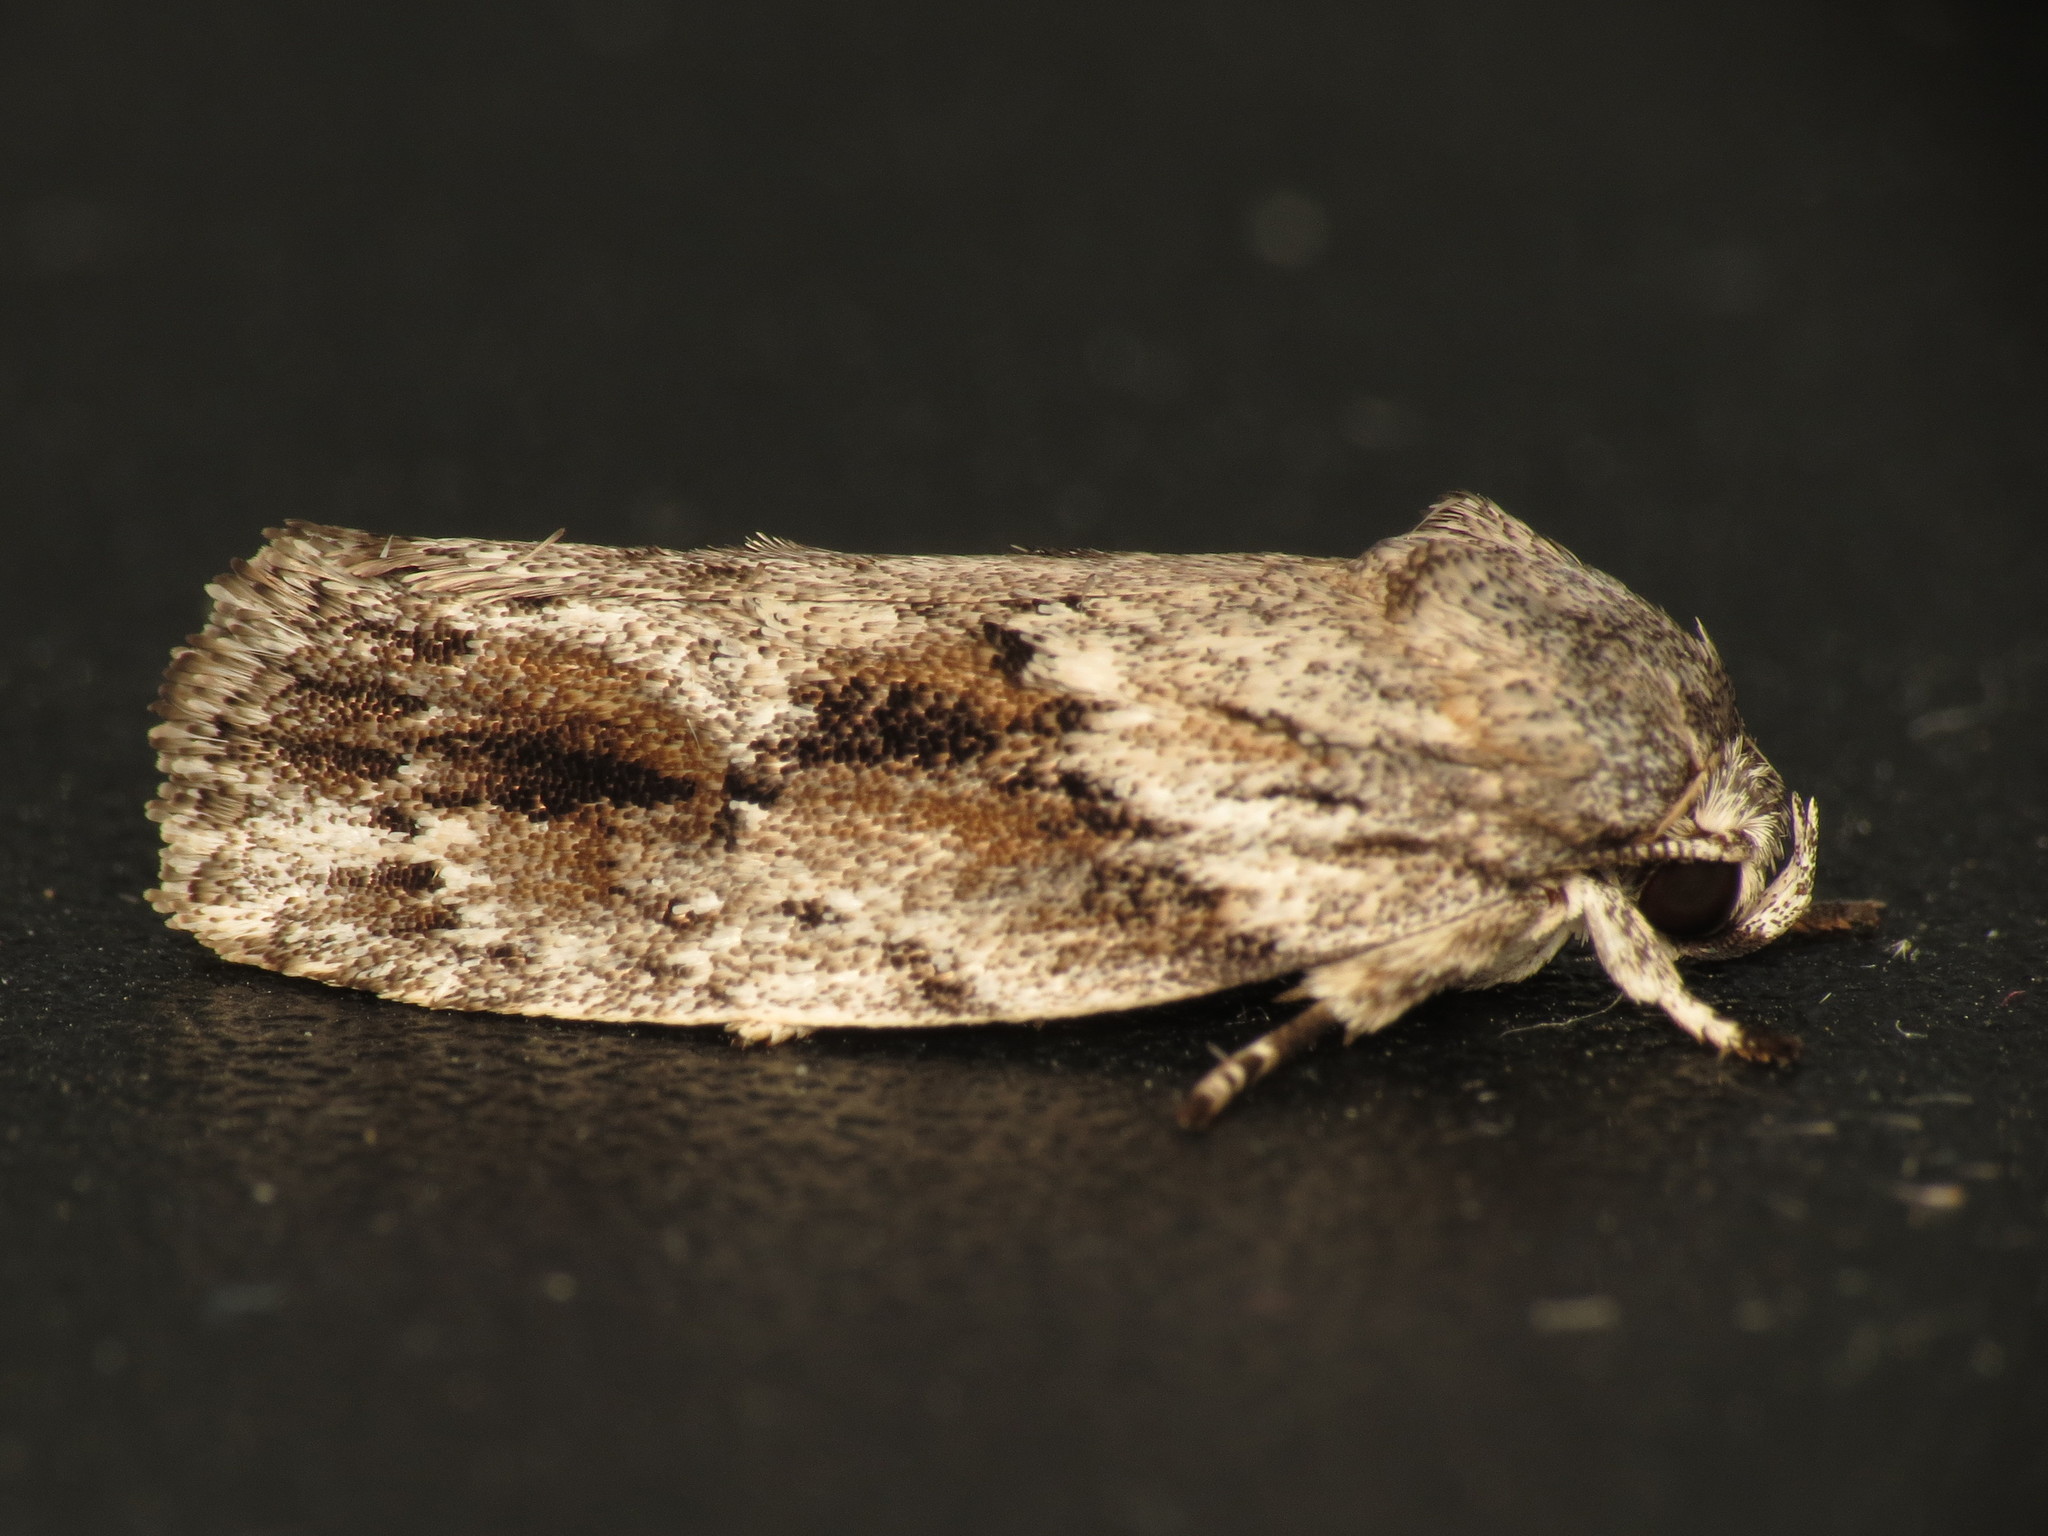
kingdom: Animalia
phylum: Arthropoda
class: Insecta
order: Lepidoptera
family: Depressariidae
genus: Agriophara
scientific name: Agriophara confertella
